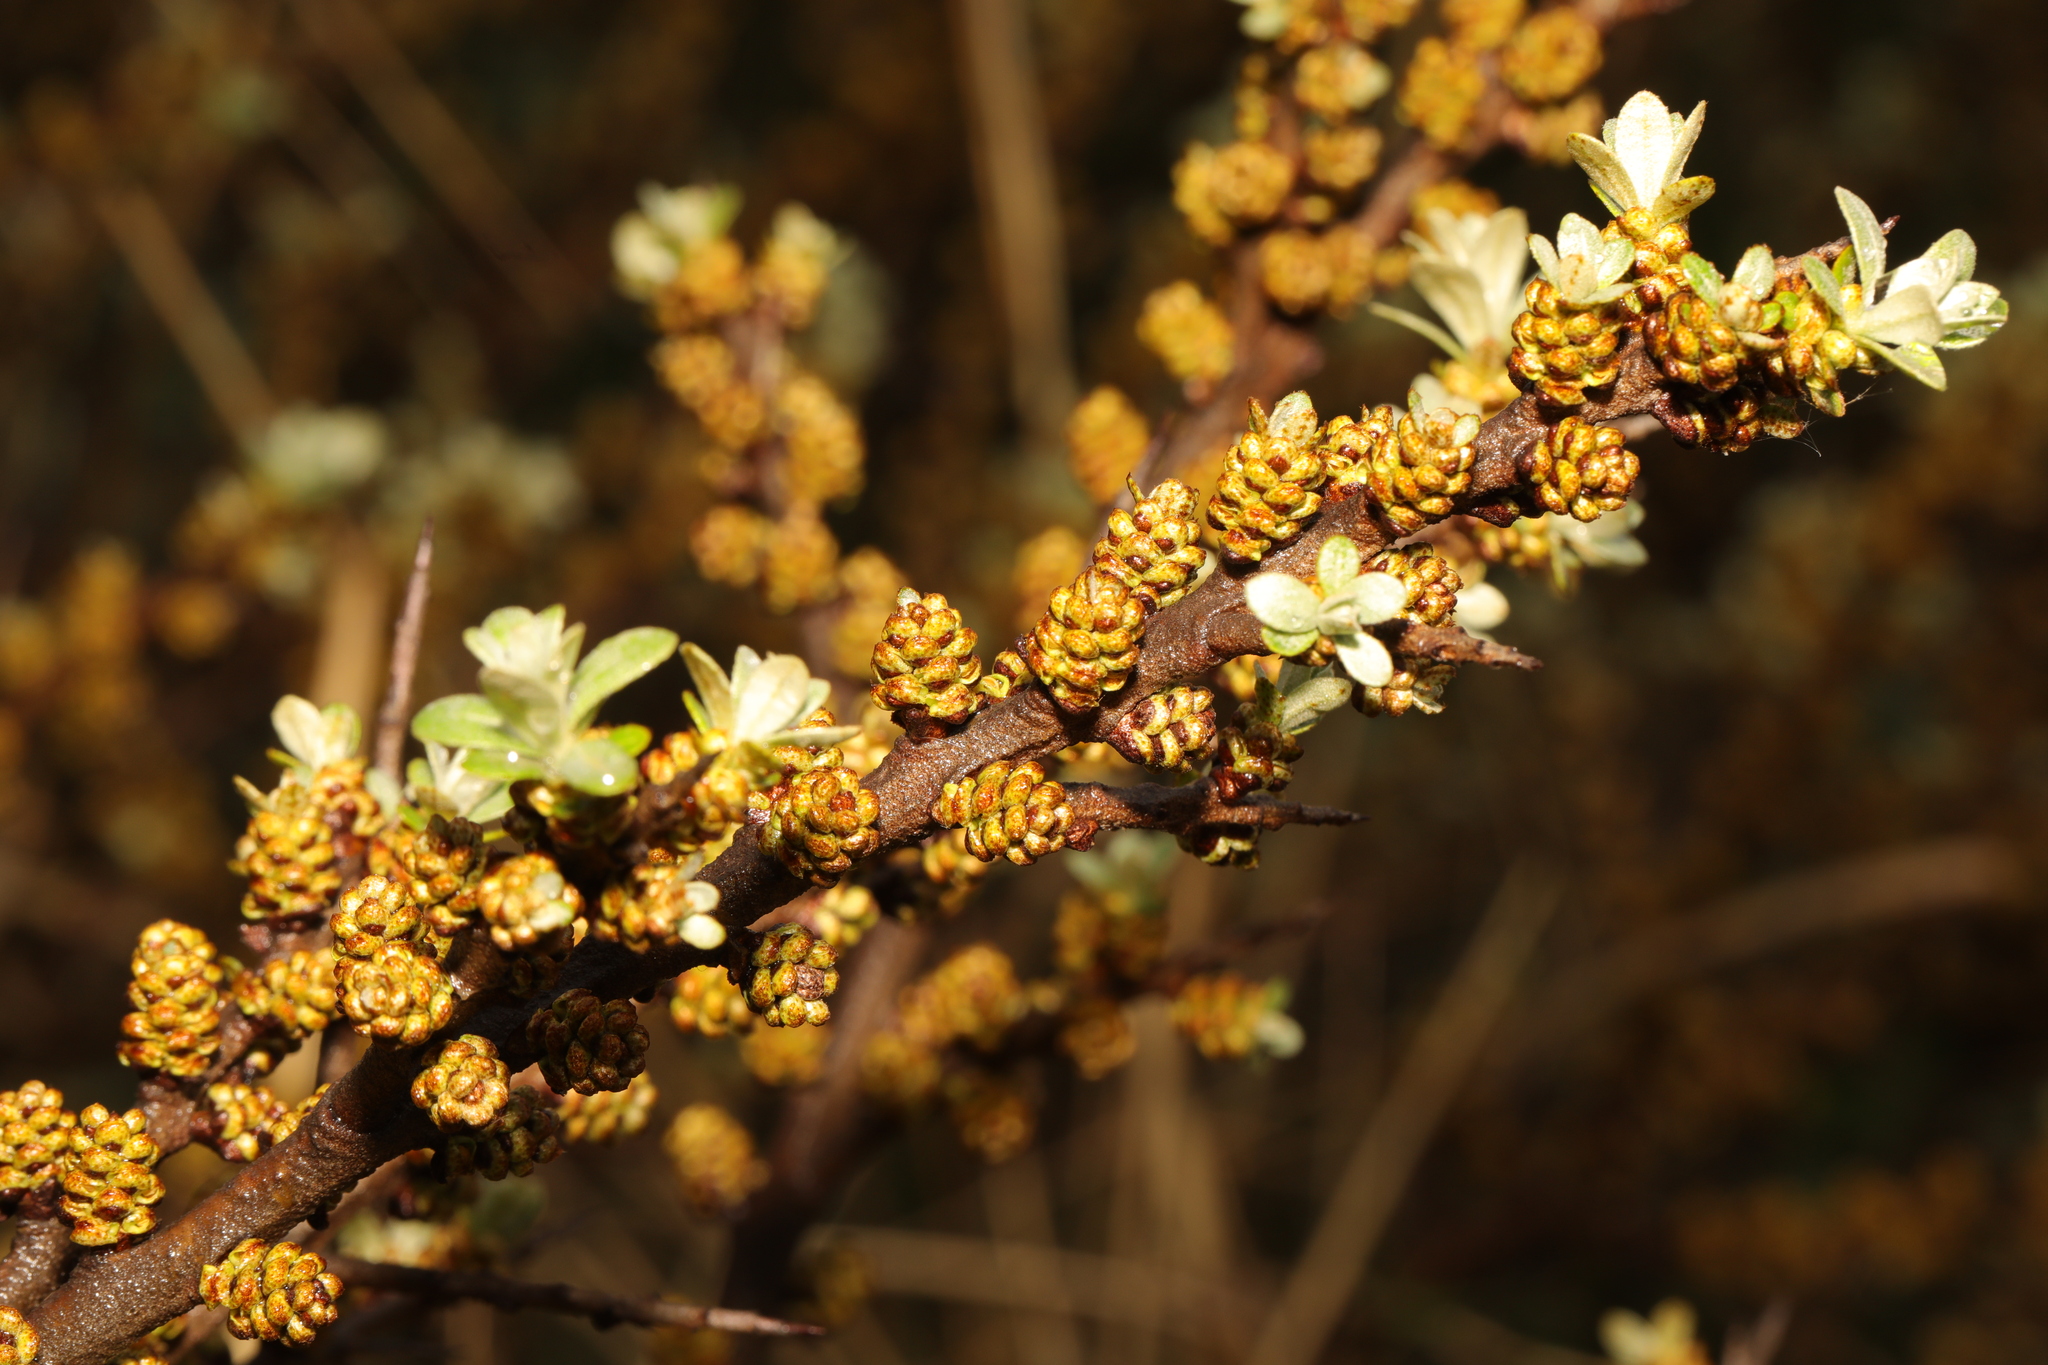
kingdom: Plantae
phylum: Tracheophyta
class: Magnoliopsida
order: Rosales
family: Elaeagnaceae
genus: Hippophae
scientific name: Hippophae rhamnoides
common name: Sea-buckthorn
